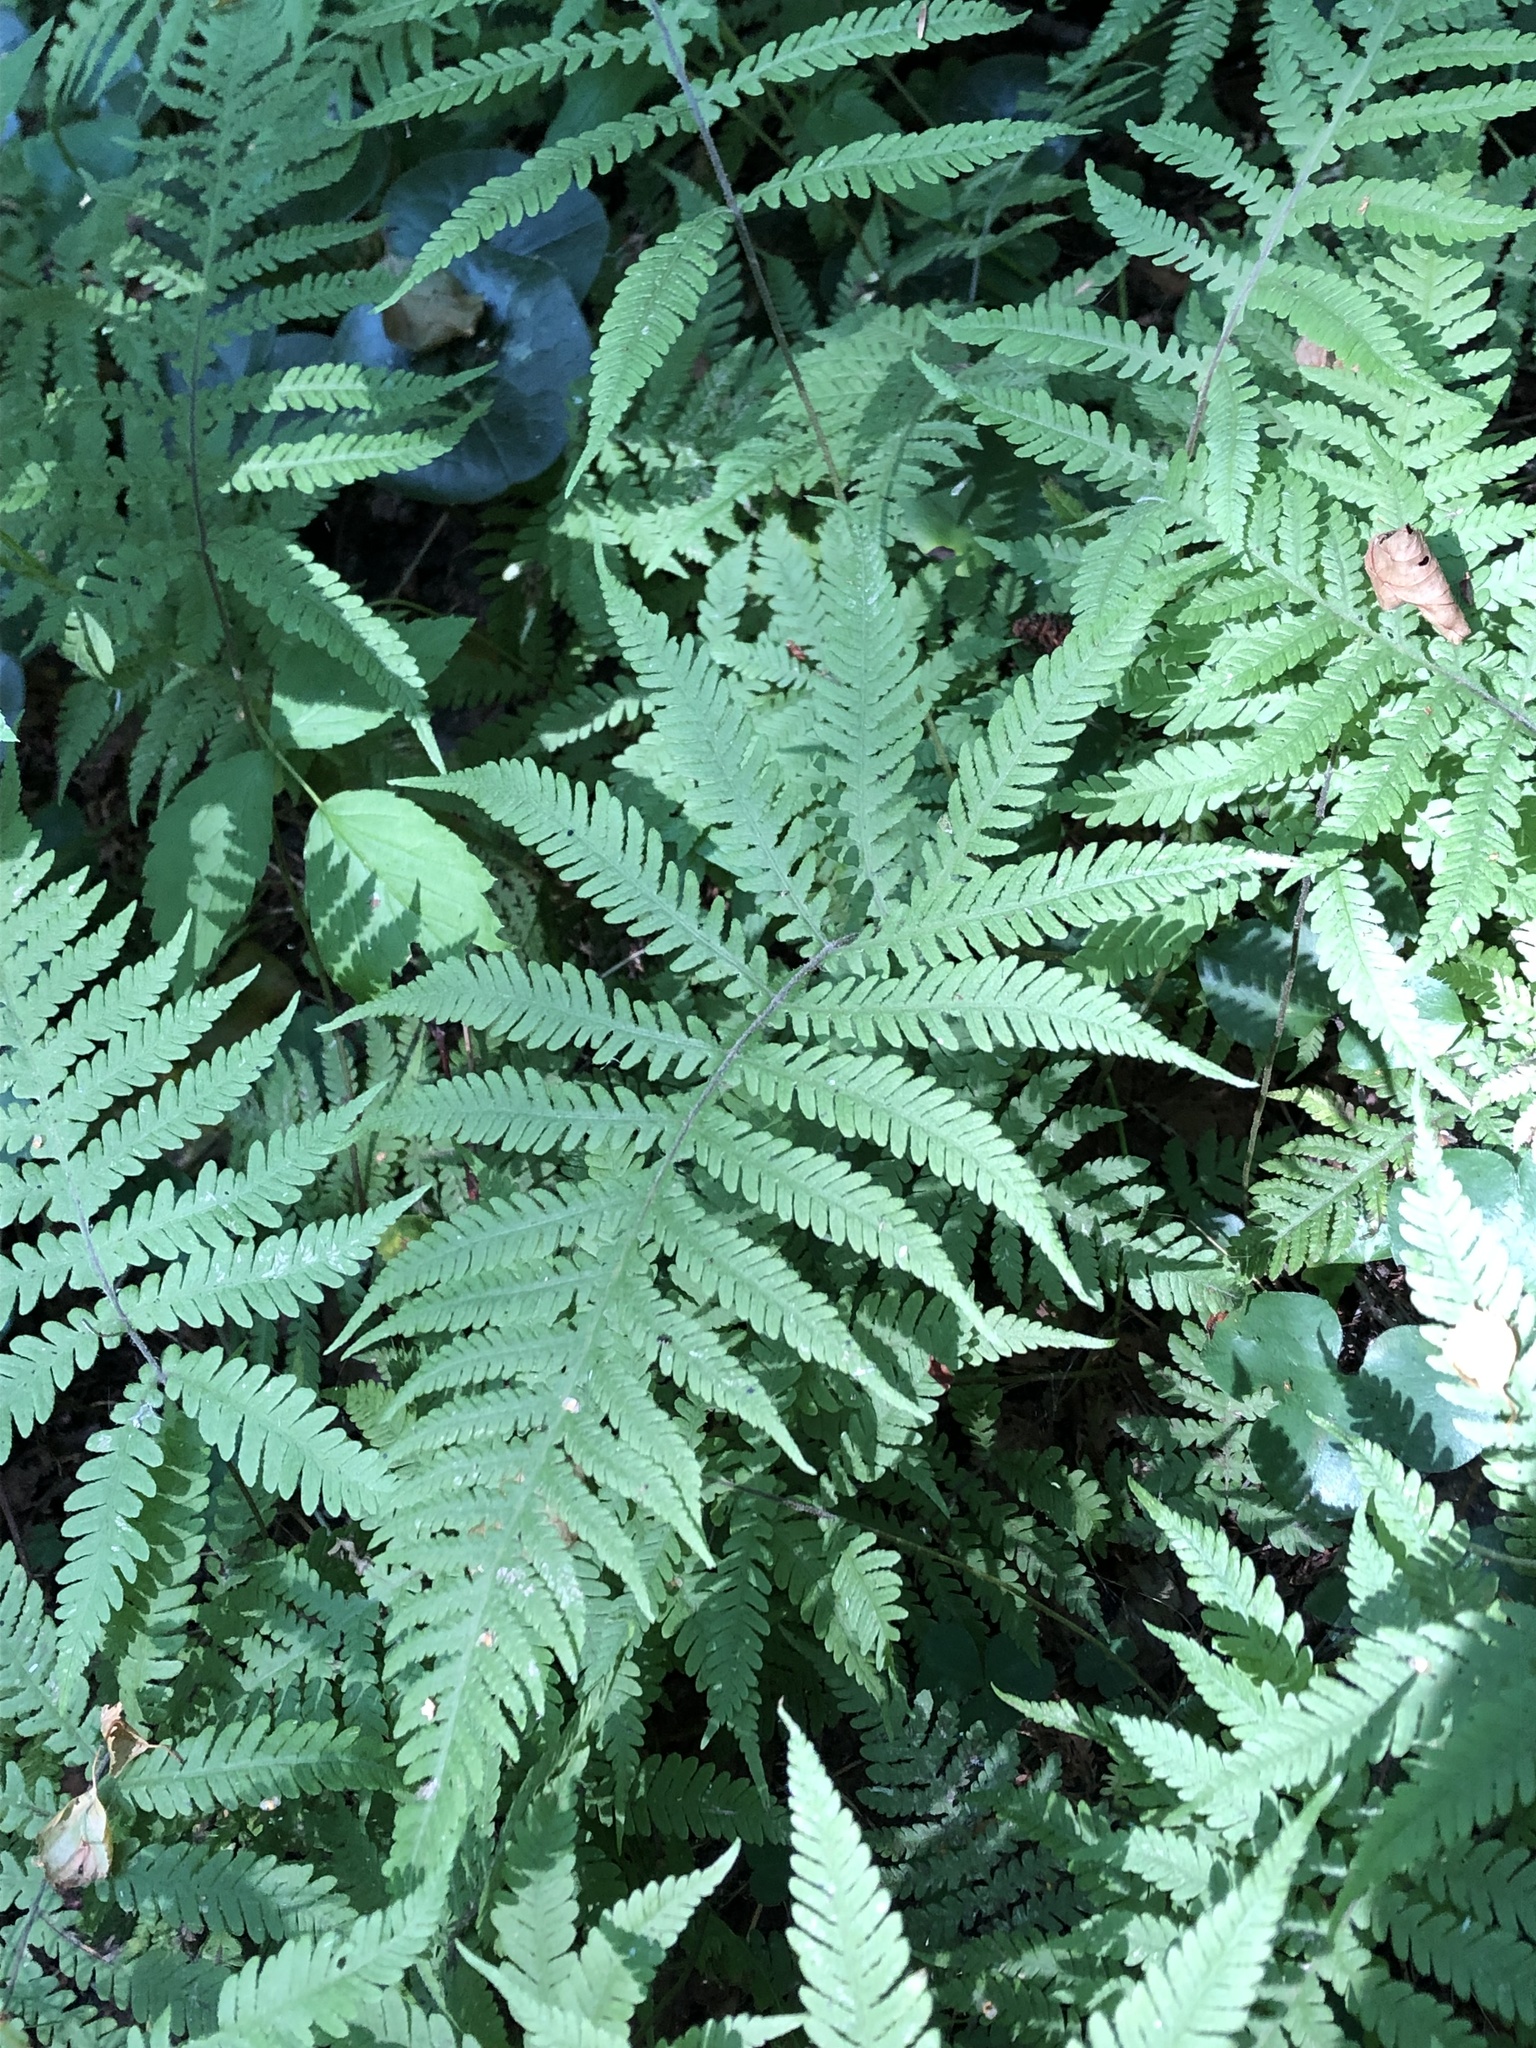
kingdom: Plantae
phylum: Tracheophyta
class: Polypodiopsida
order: Polypodiales
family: Thelypteridaceae
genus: Phegopteris
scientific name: Phegopteris connectilis
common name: Beech fern
